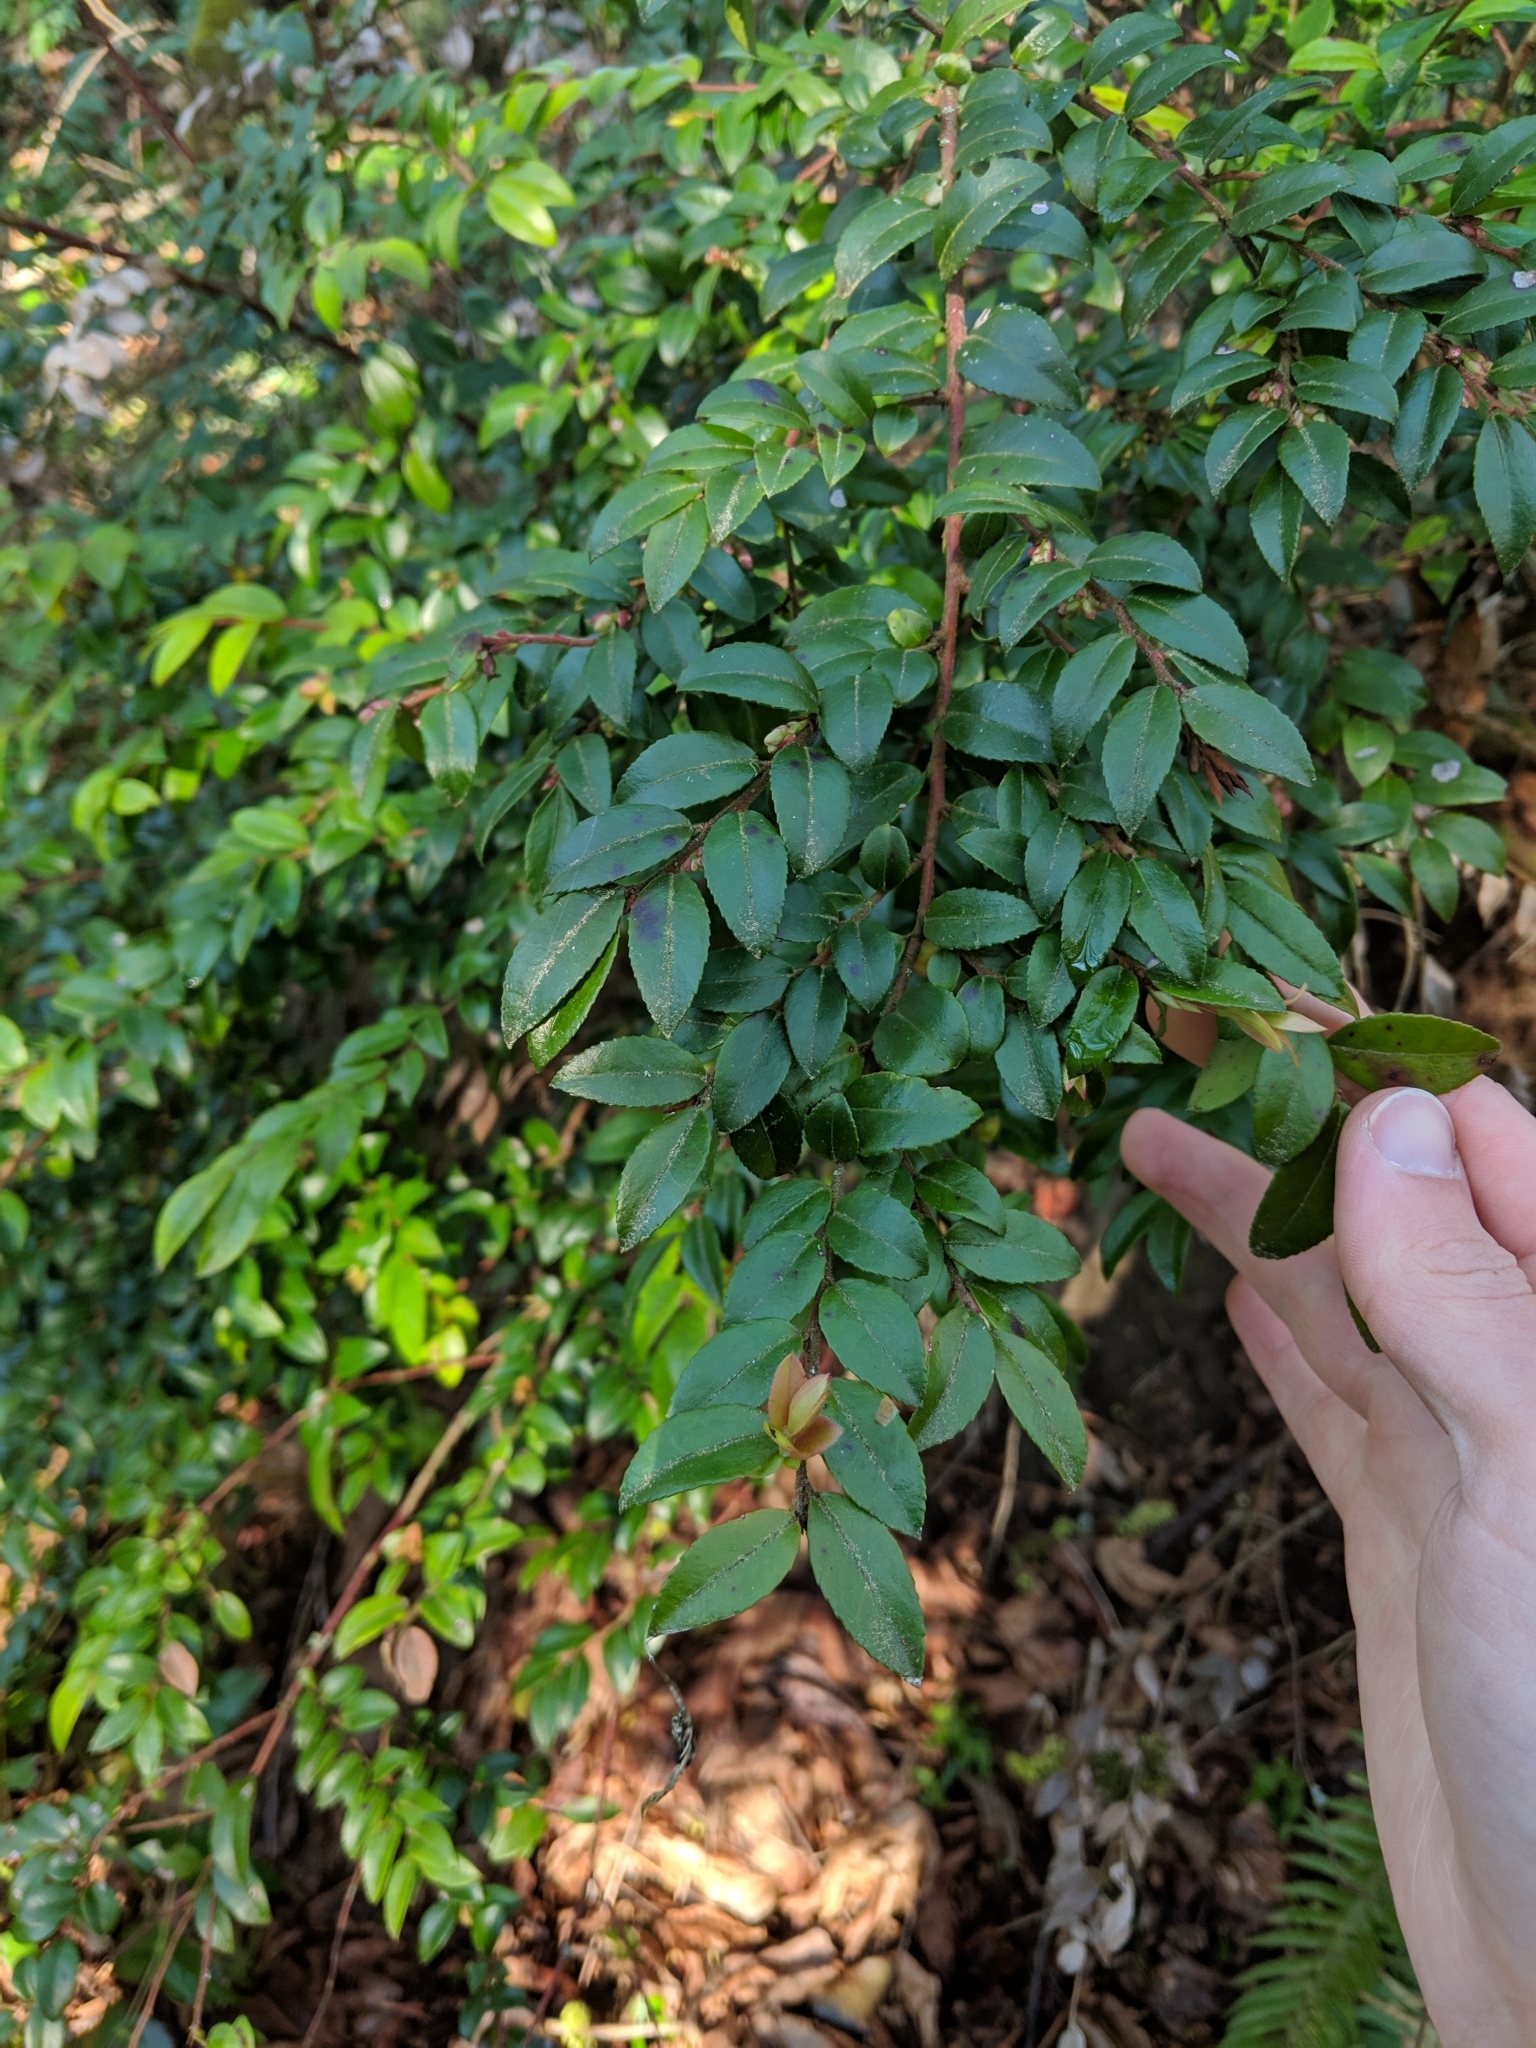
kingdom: Plantae
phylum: Tracheophyta
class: Magnoliopsida
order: Ericales
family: Ericaceae
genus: Vaccinium
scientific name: Vaccinium ovatum
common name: California-huckleberry
